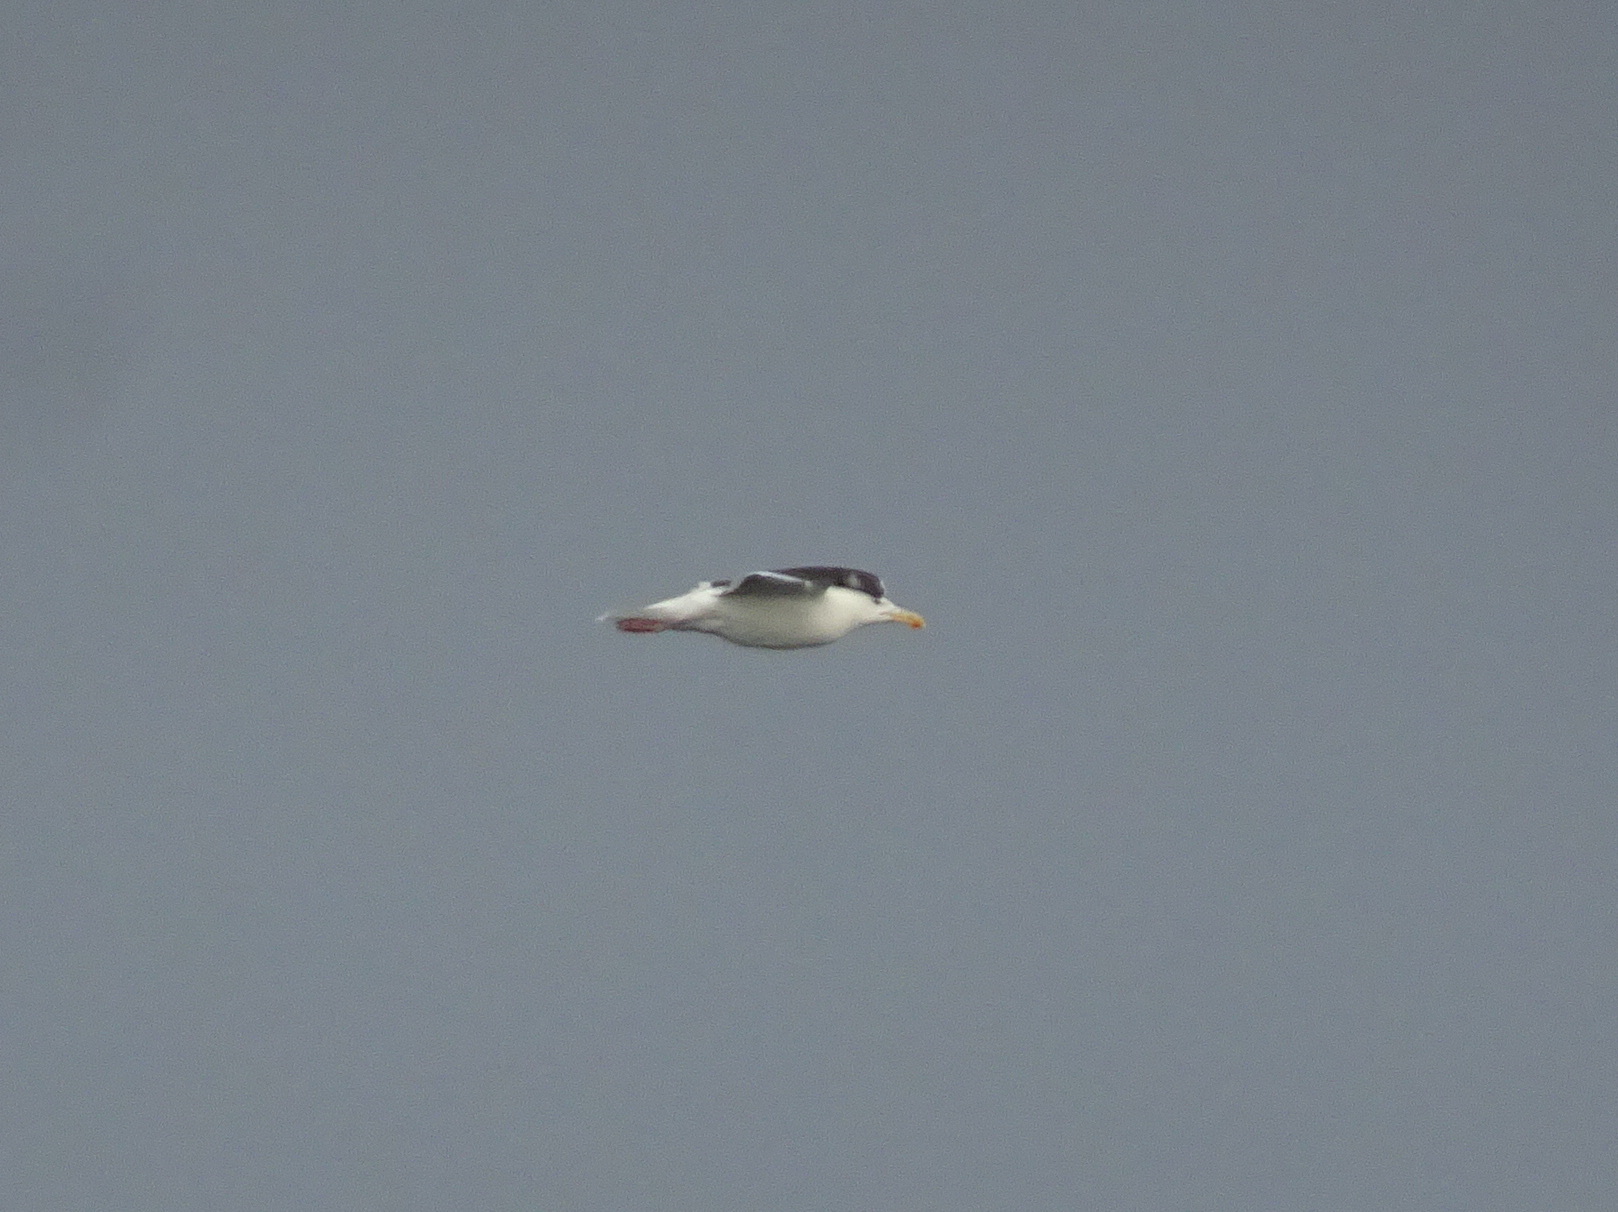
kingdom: Animalia
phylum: Chordata
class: Aves
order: Charadriiformes
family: Laridae
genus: Larus
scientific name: Larus marinus
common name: Great black-backed gull
